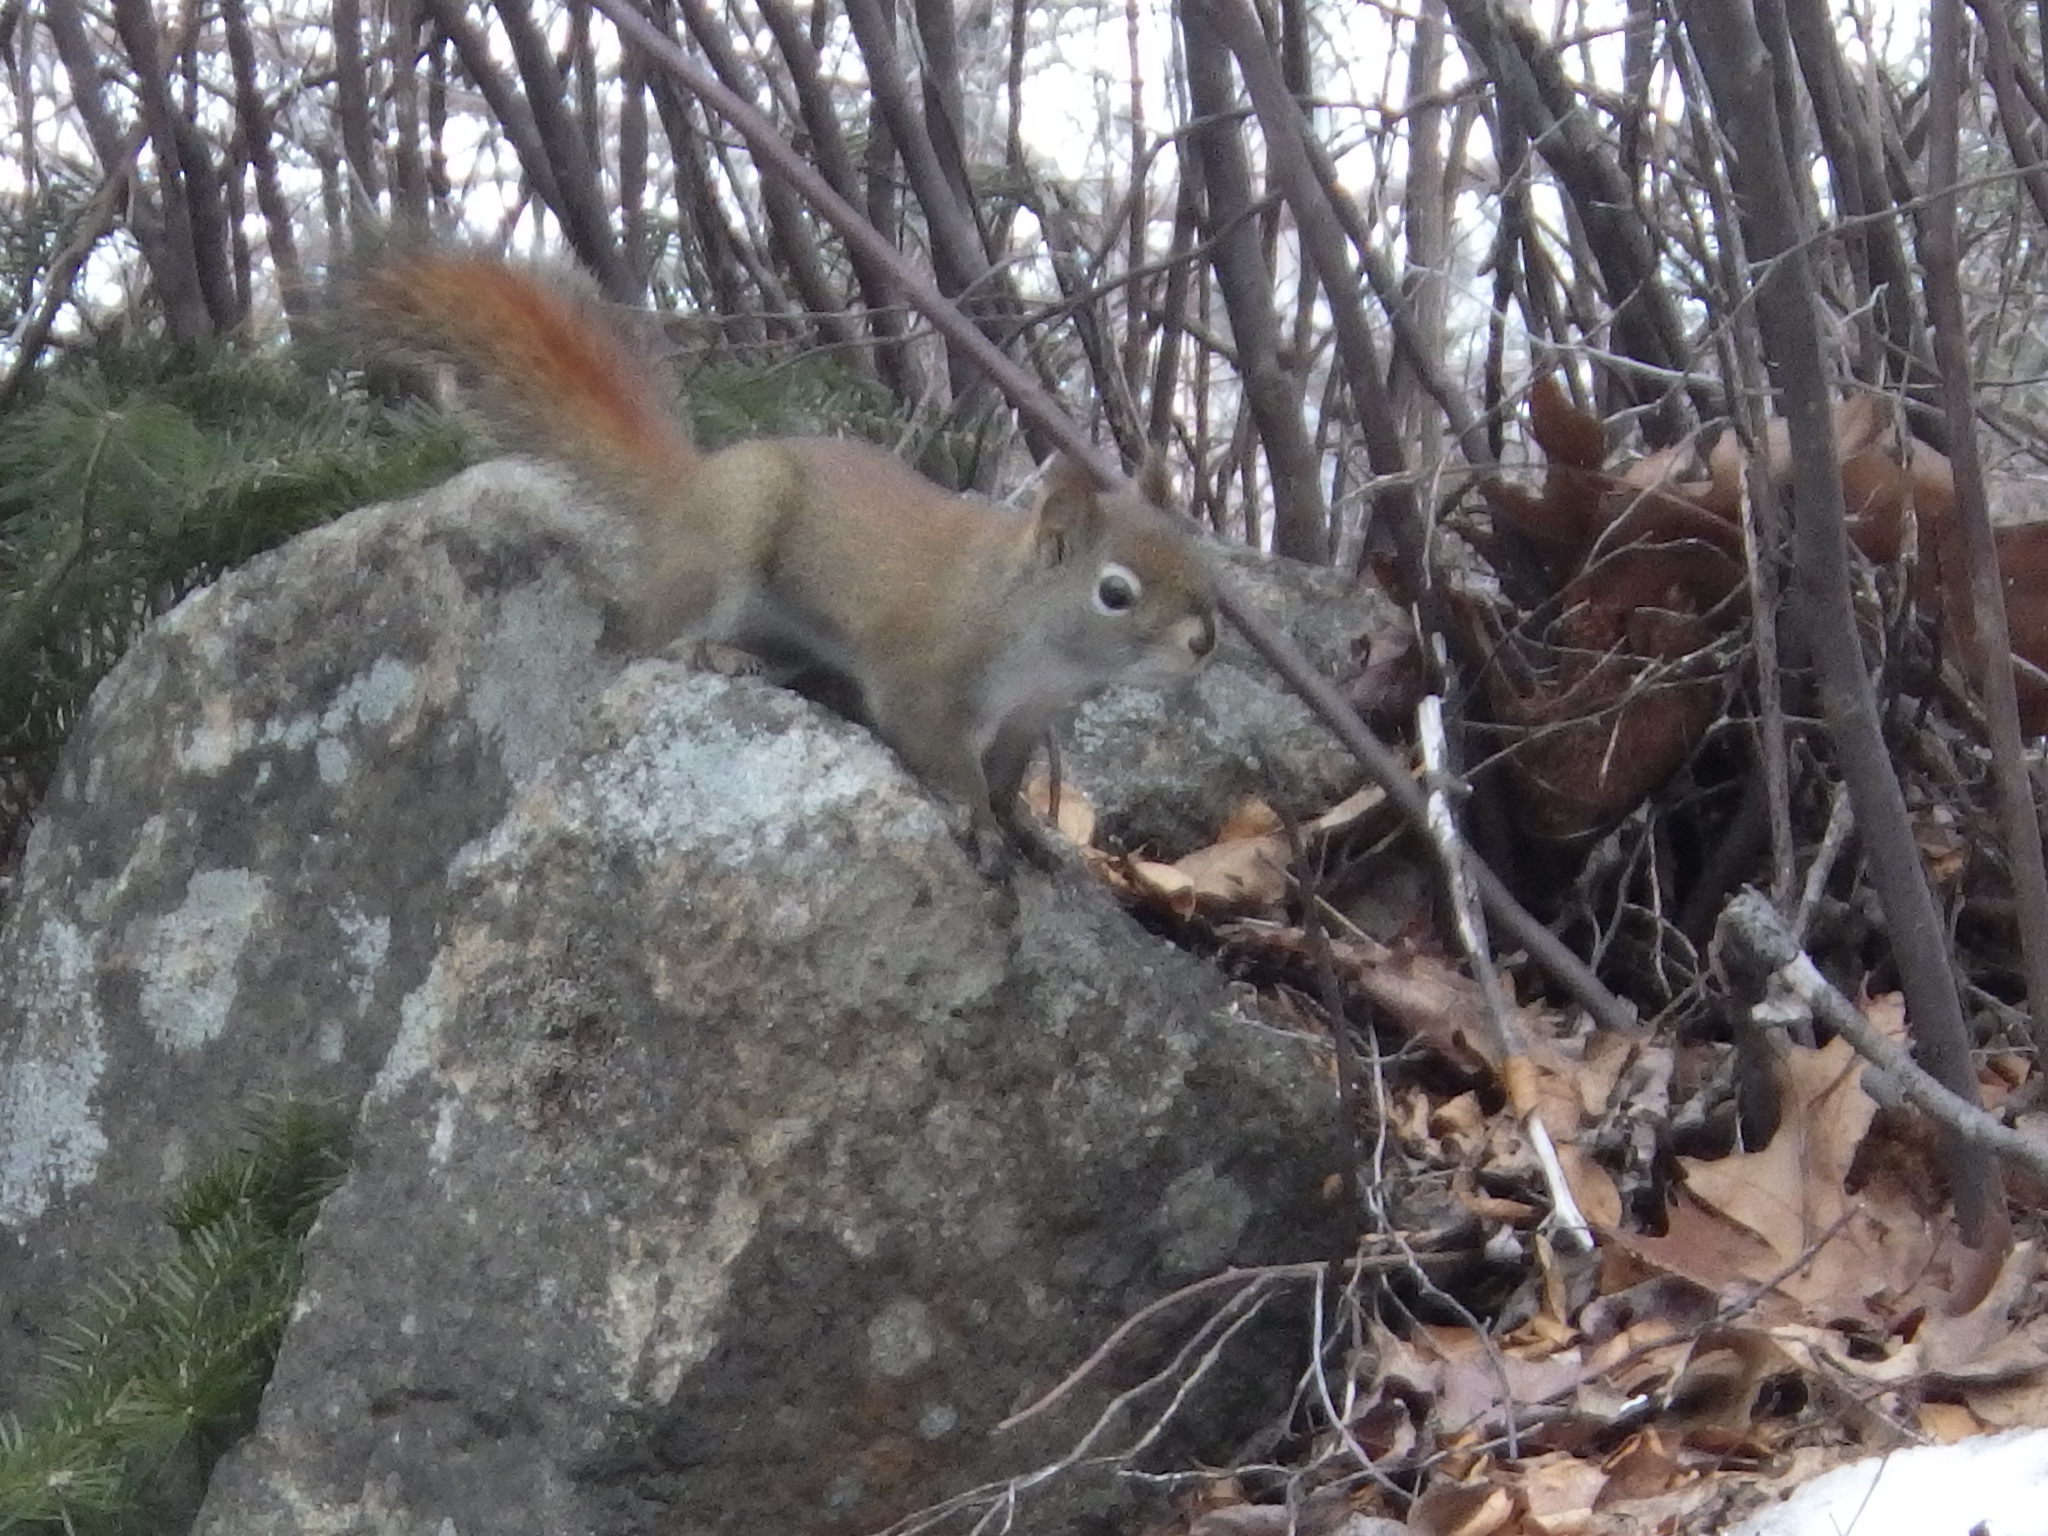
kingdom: Animalia
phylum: Chordata
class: Mammalia
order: Rodentia
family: Sciuridae
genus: Tamiasciurus
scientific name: Tamiasciurus hudsonicus
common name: Red squirrel
